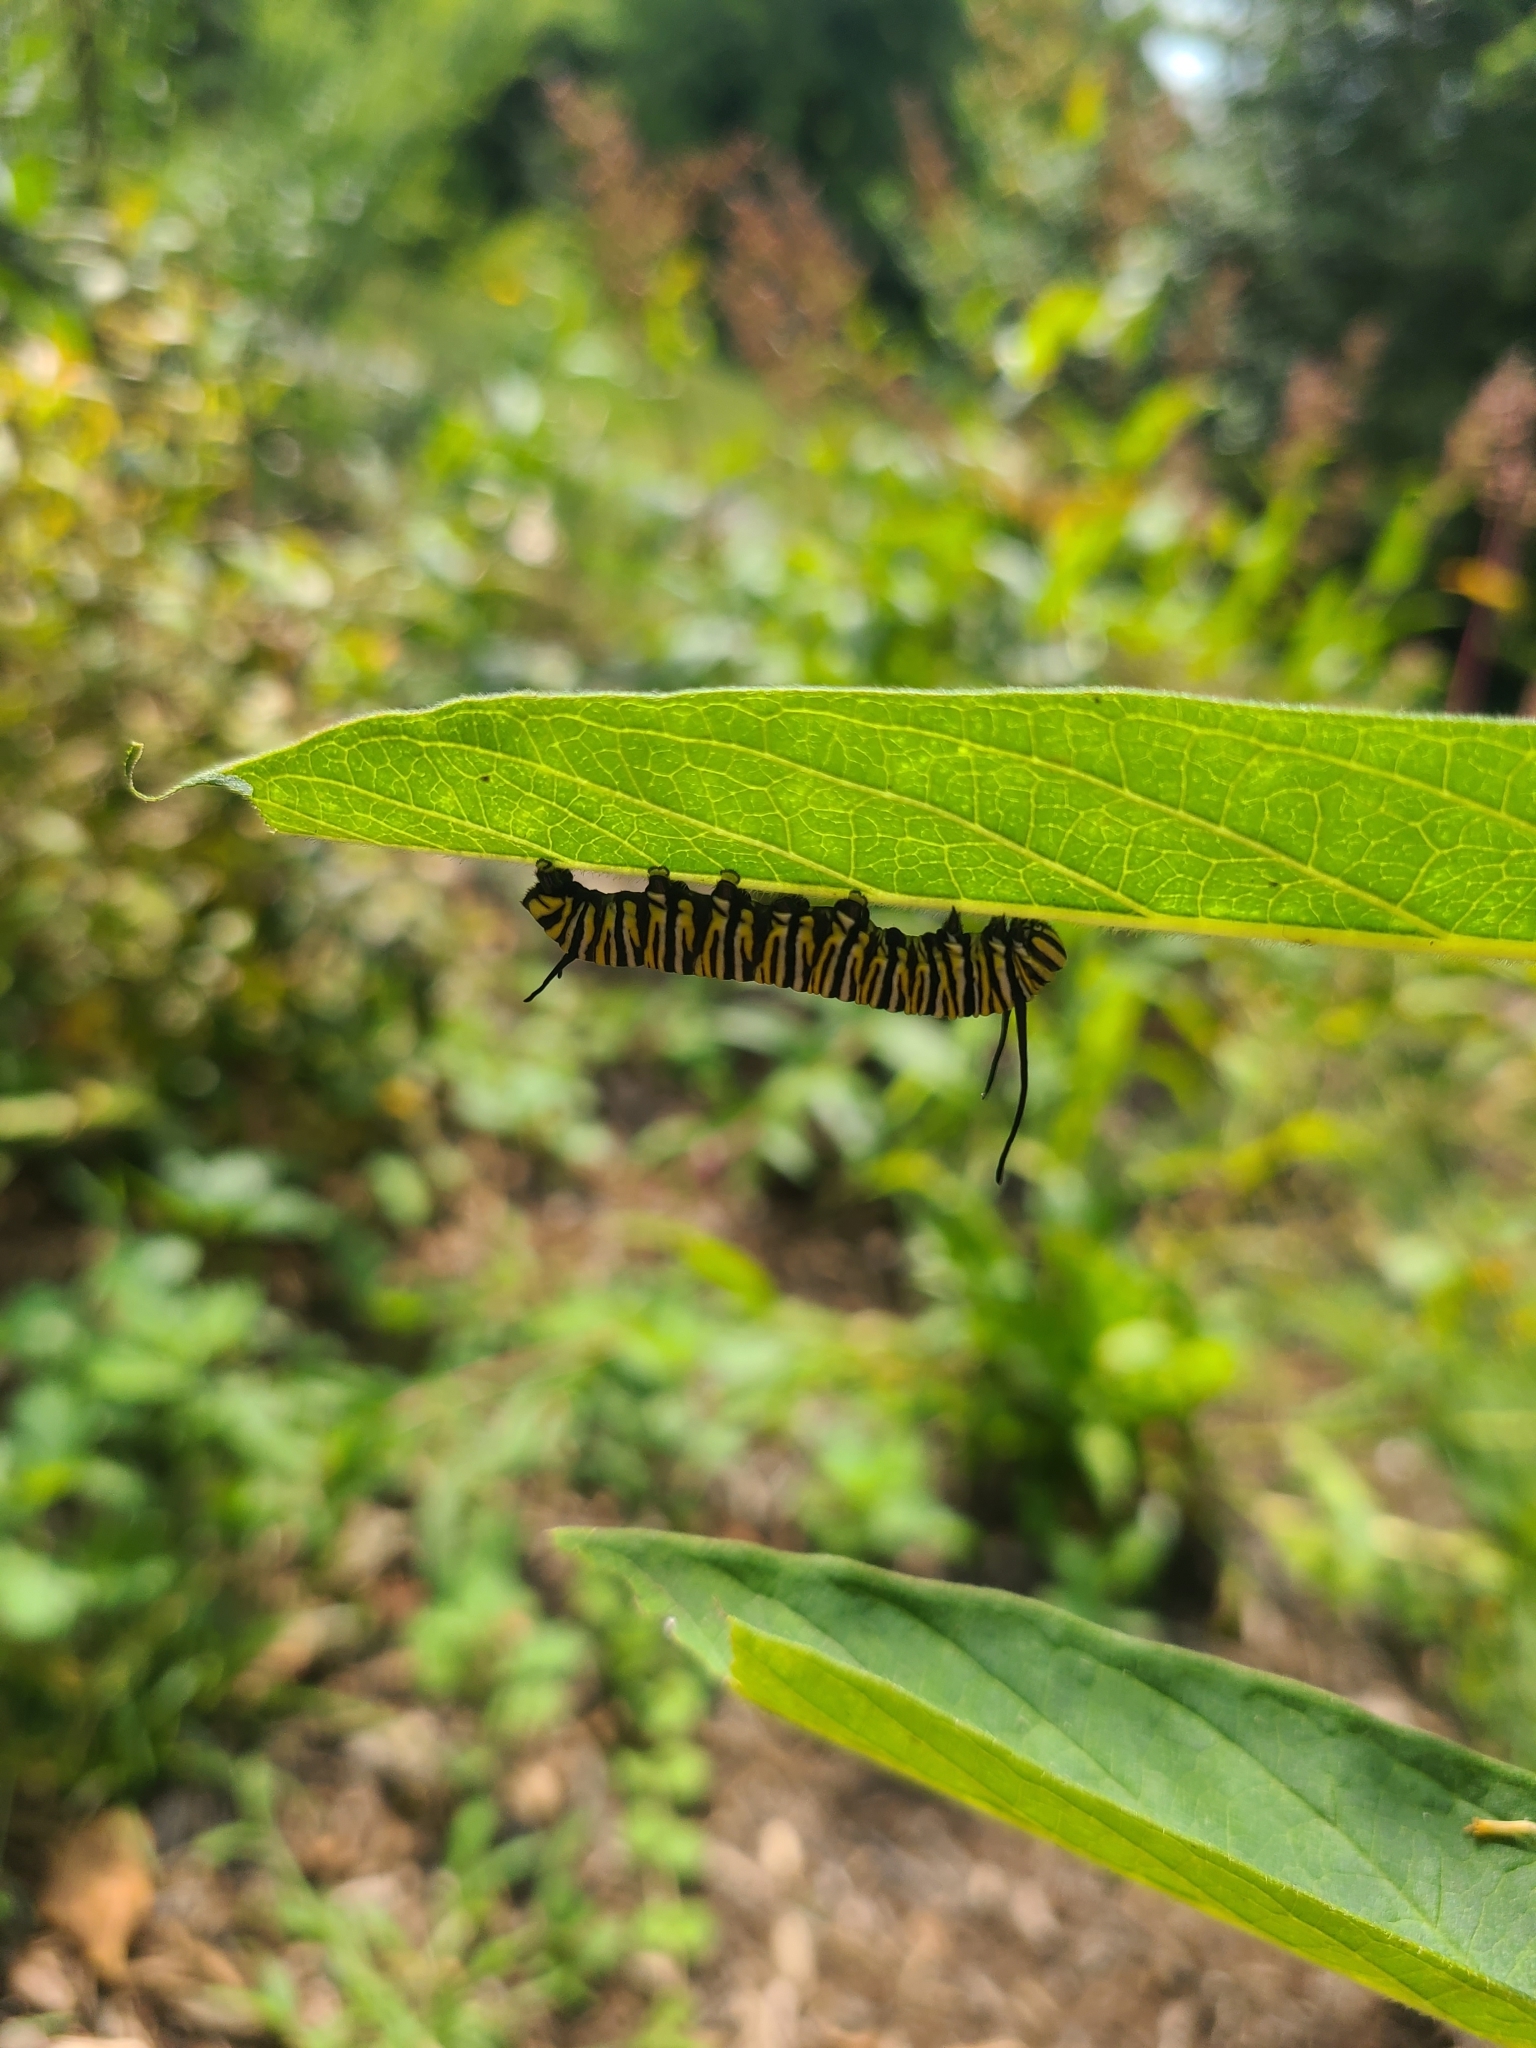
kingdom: Animalia
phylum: Arthropoda
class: Insecta
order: Lepidoptera
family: Nymphalidae
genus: Danaus
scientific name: Danaus plexippus
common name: Monarch
